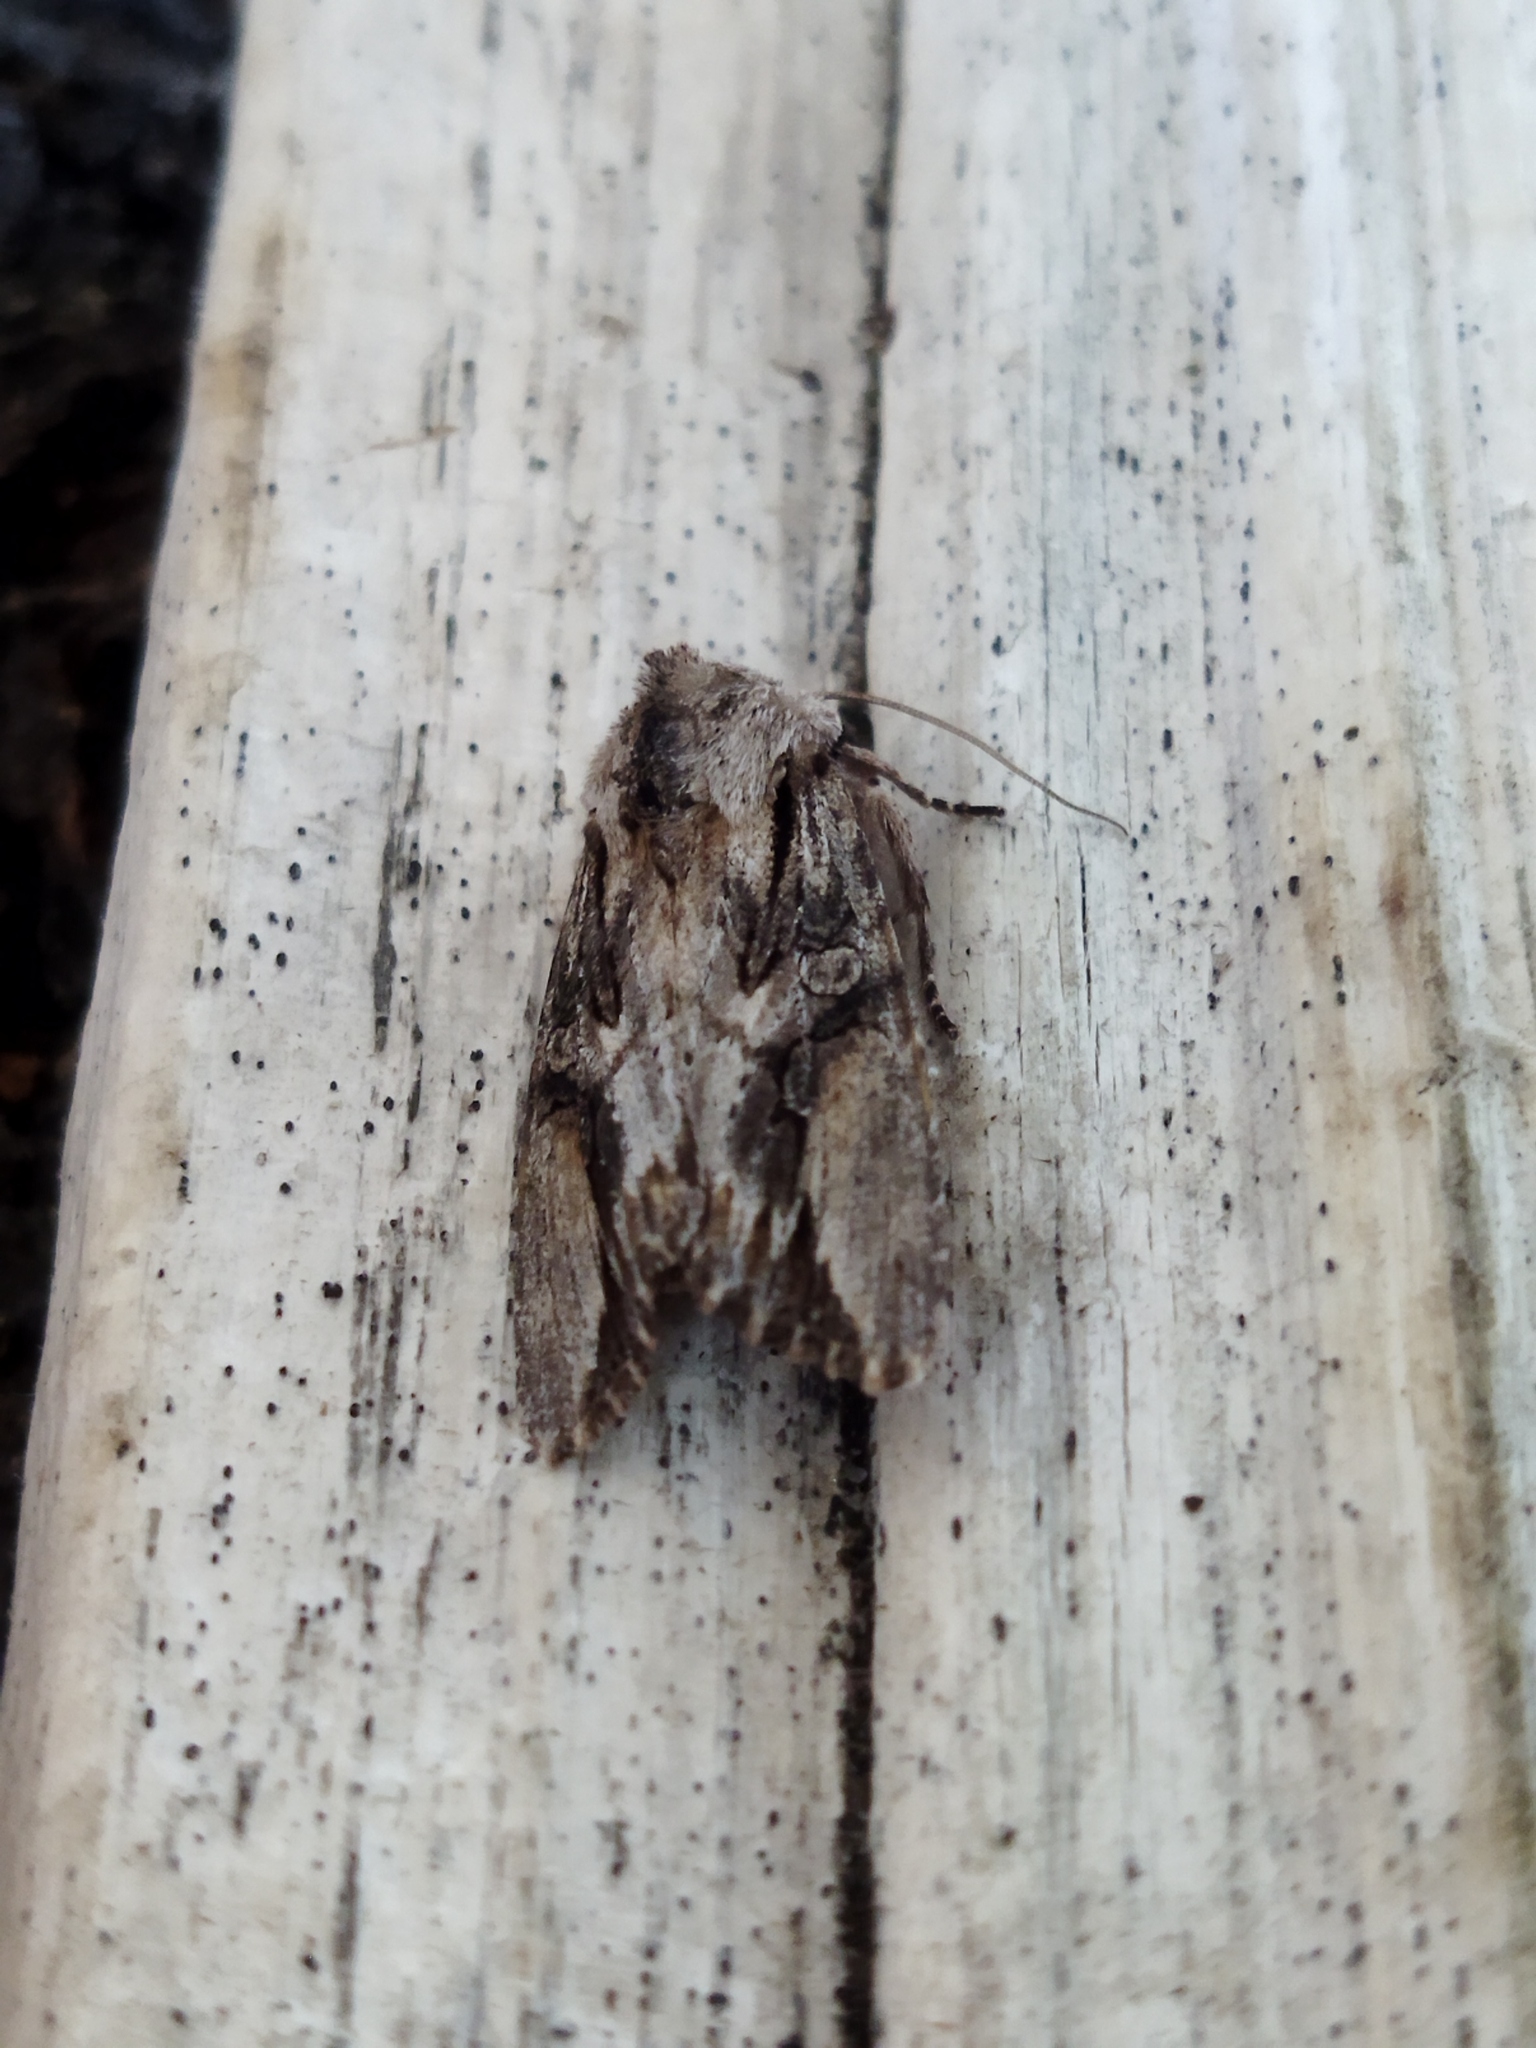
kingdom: Animalia
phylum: Arthropoda
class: Insecta
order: Lepidoptera
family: Noctuidae
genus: Egira
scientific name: Egira
